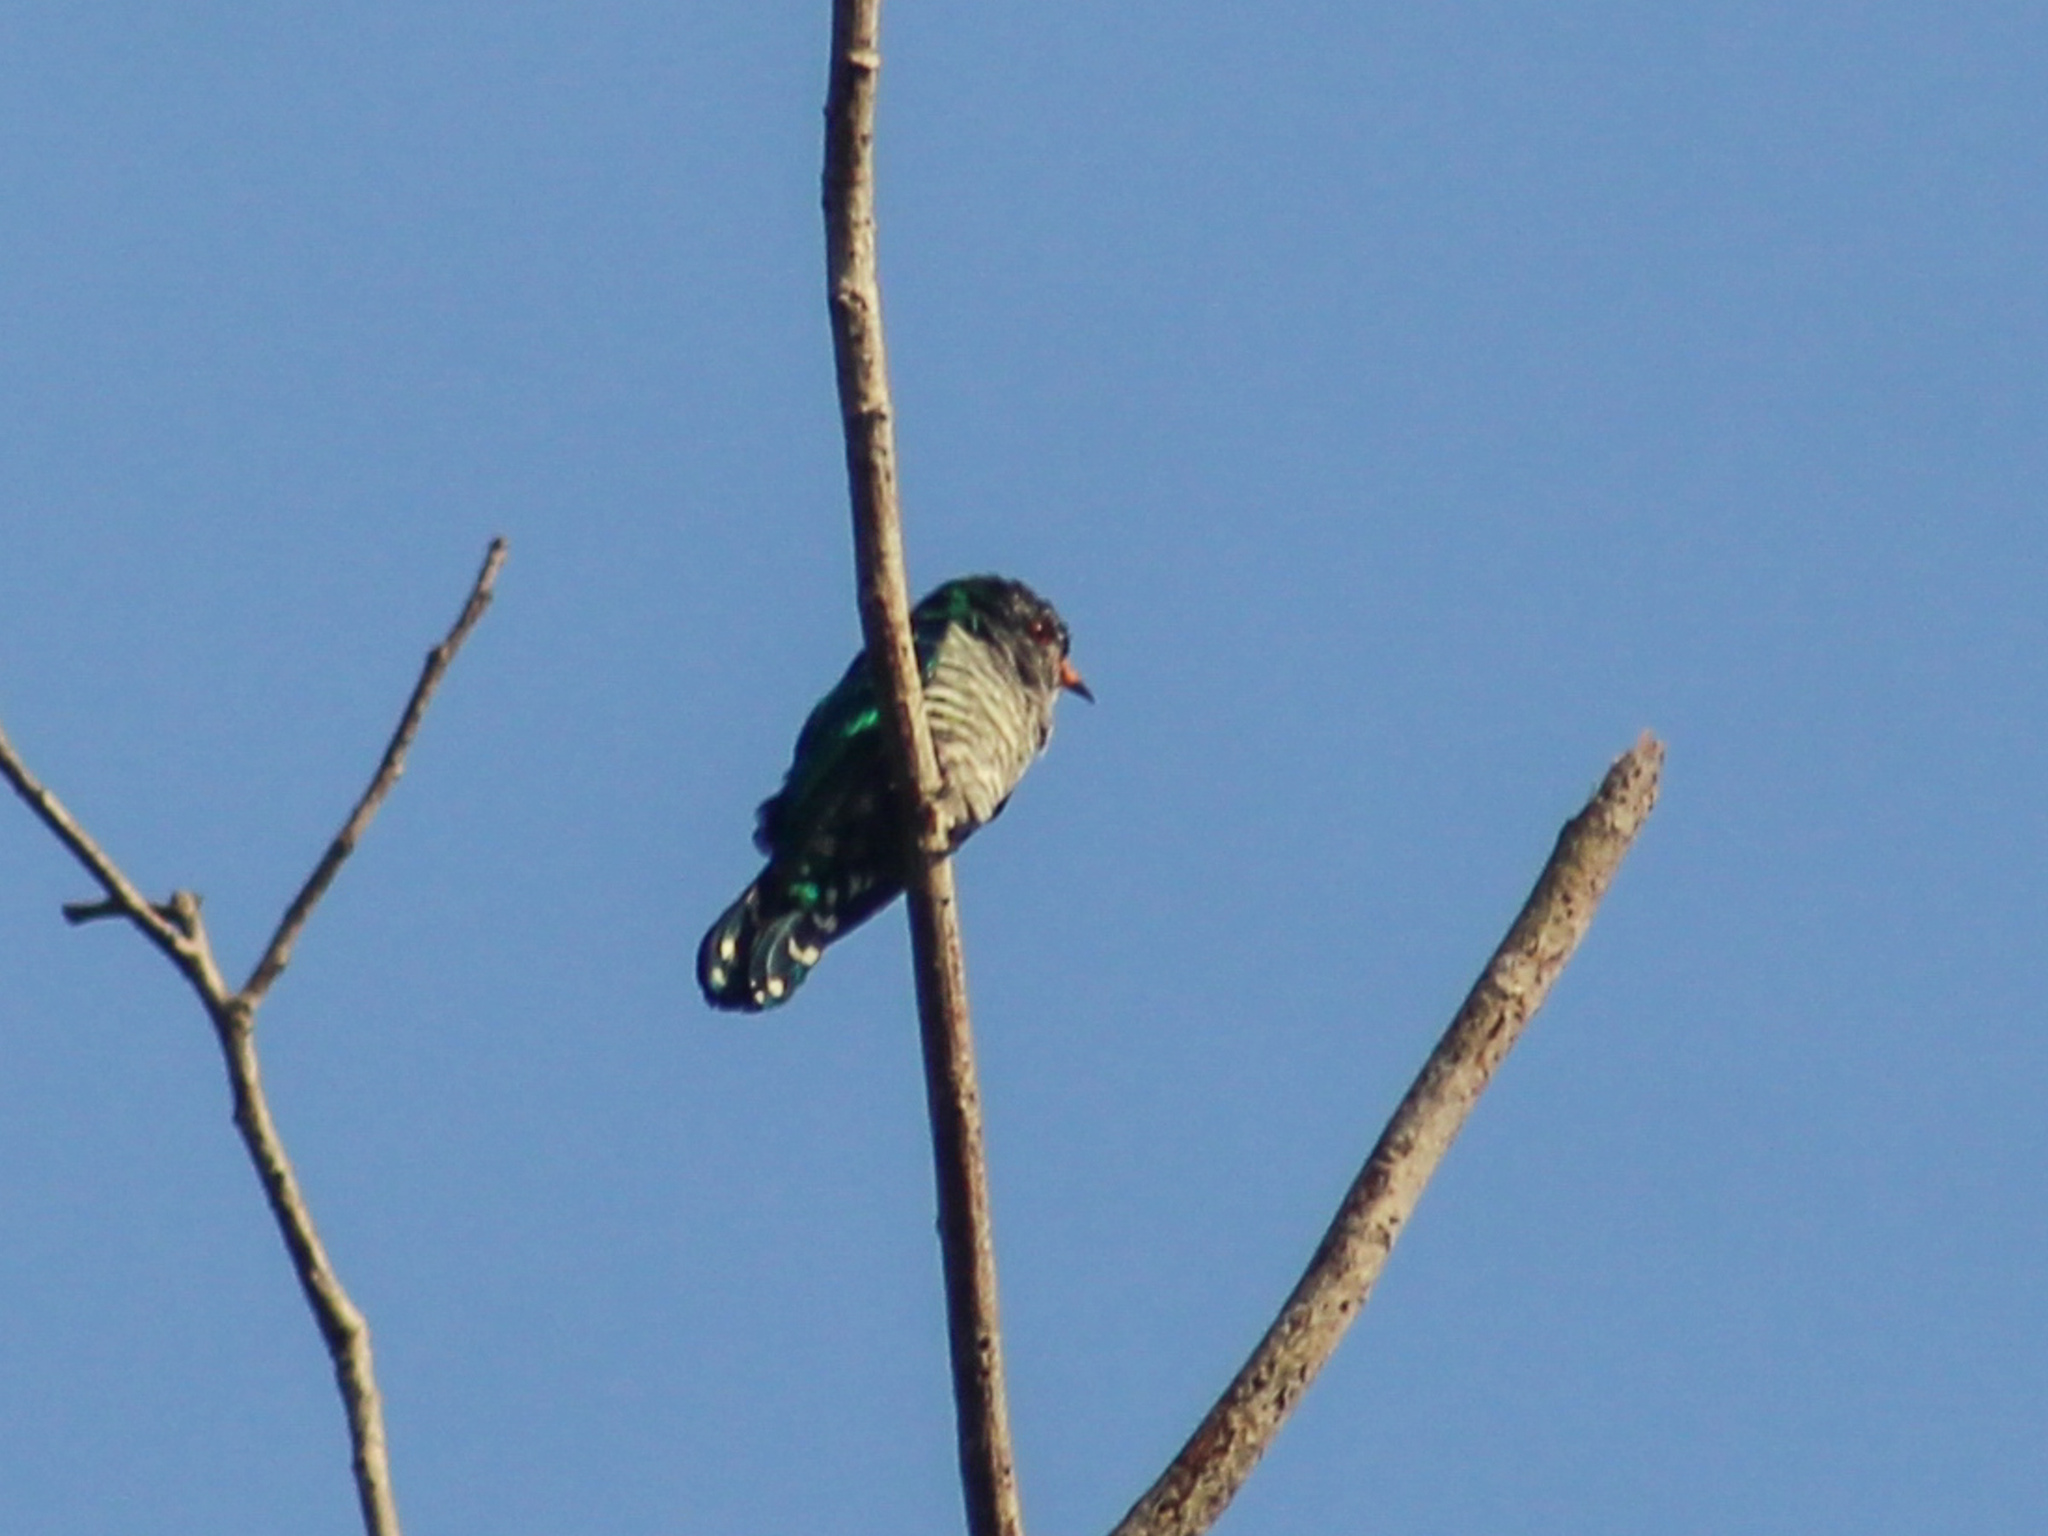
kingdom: Animalia
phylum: Chordata
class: Aves
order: Cuculiformes
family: Cuculidae
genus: Chrysococcyx
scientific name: Chrysococcyx maculatus
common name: Asian emerald cuckoo
